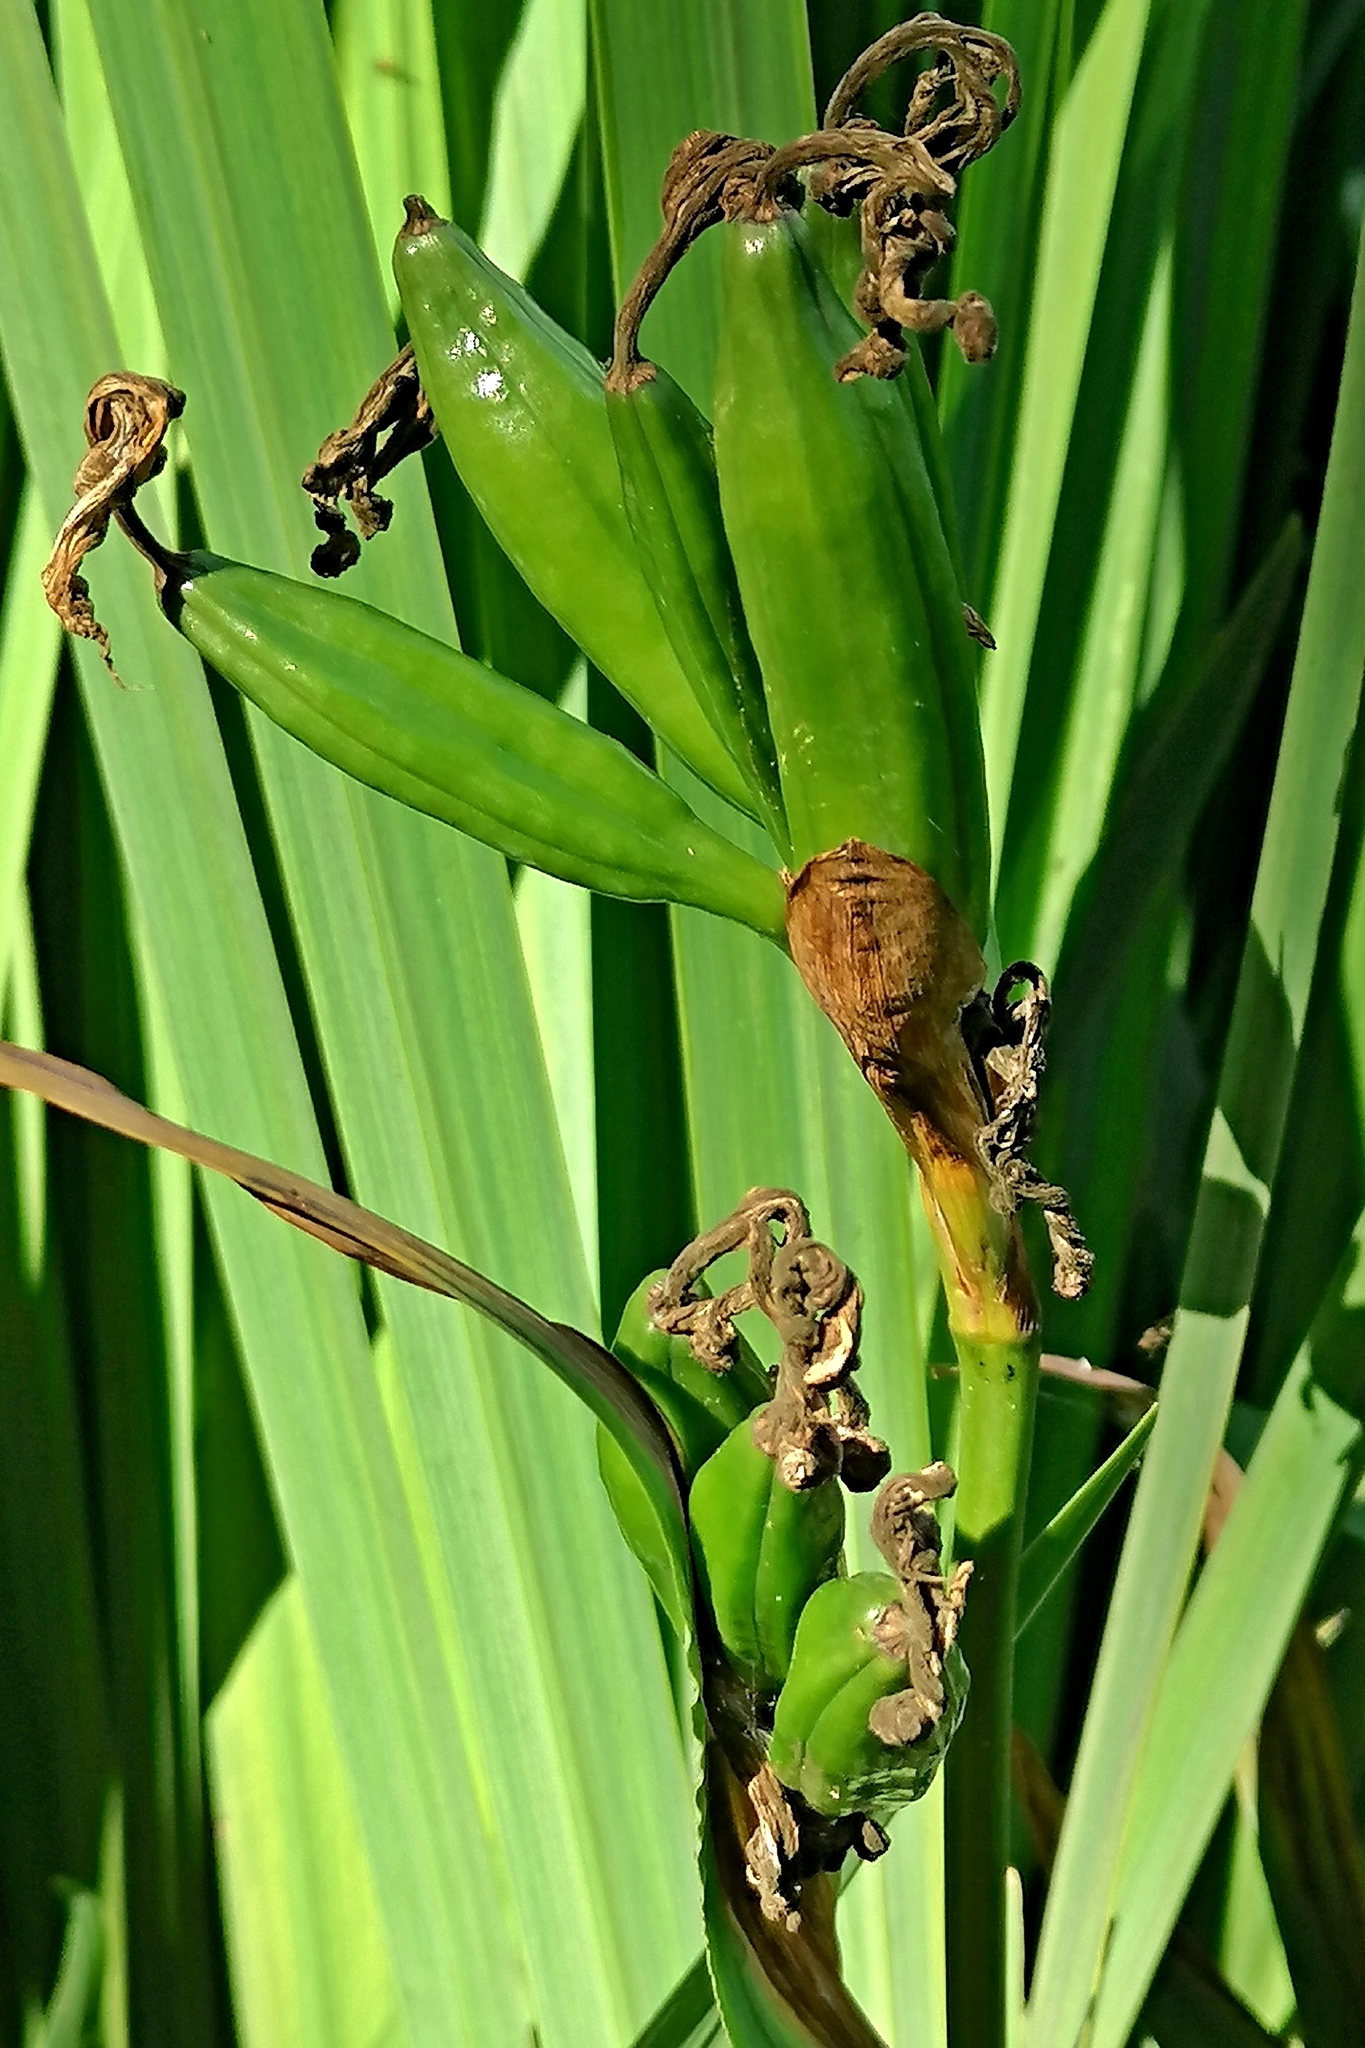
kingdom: Plantae
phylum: Tracheophyta
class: Liliopsida
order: Asparagales
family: Iridaceae
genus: Iris
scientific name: Iris pseudacorus
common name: Yellow flag
